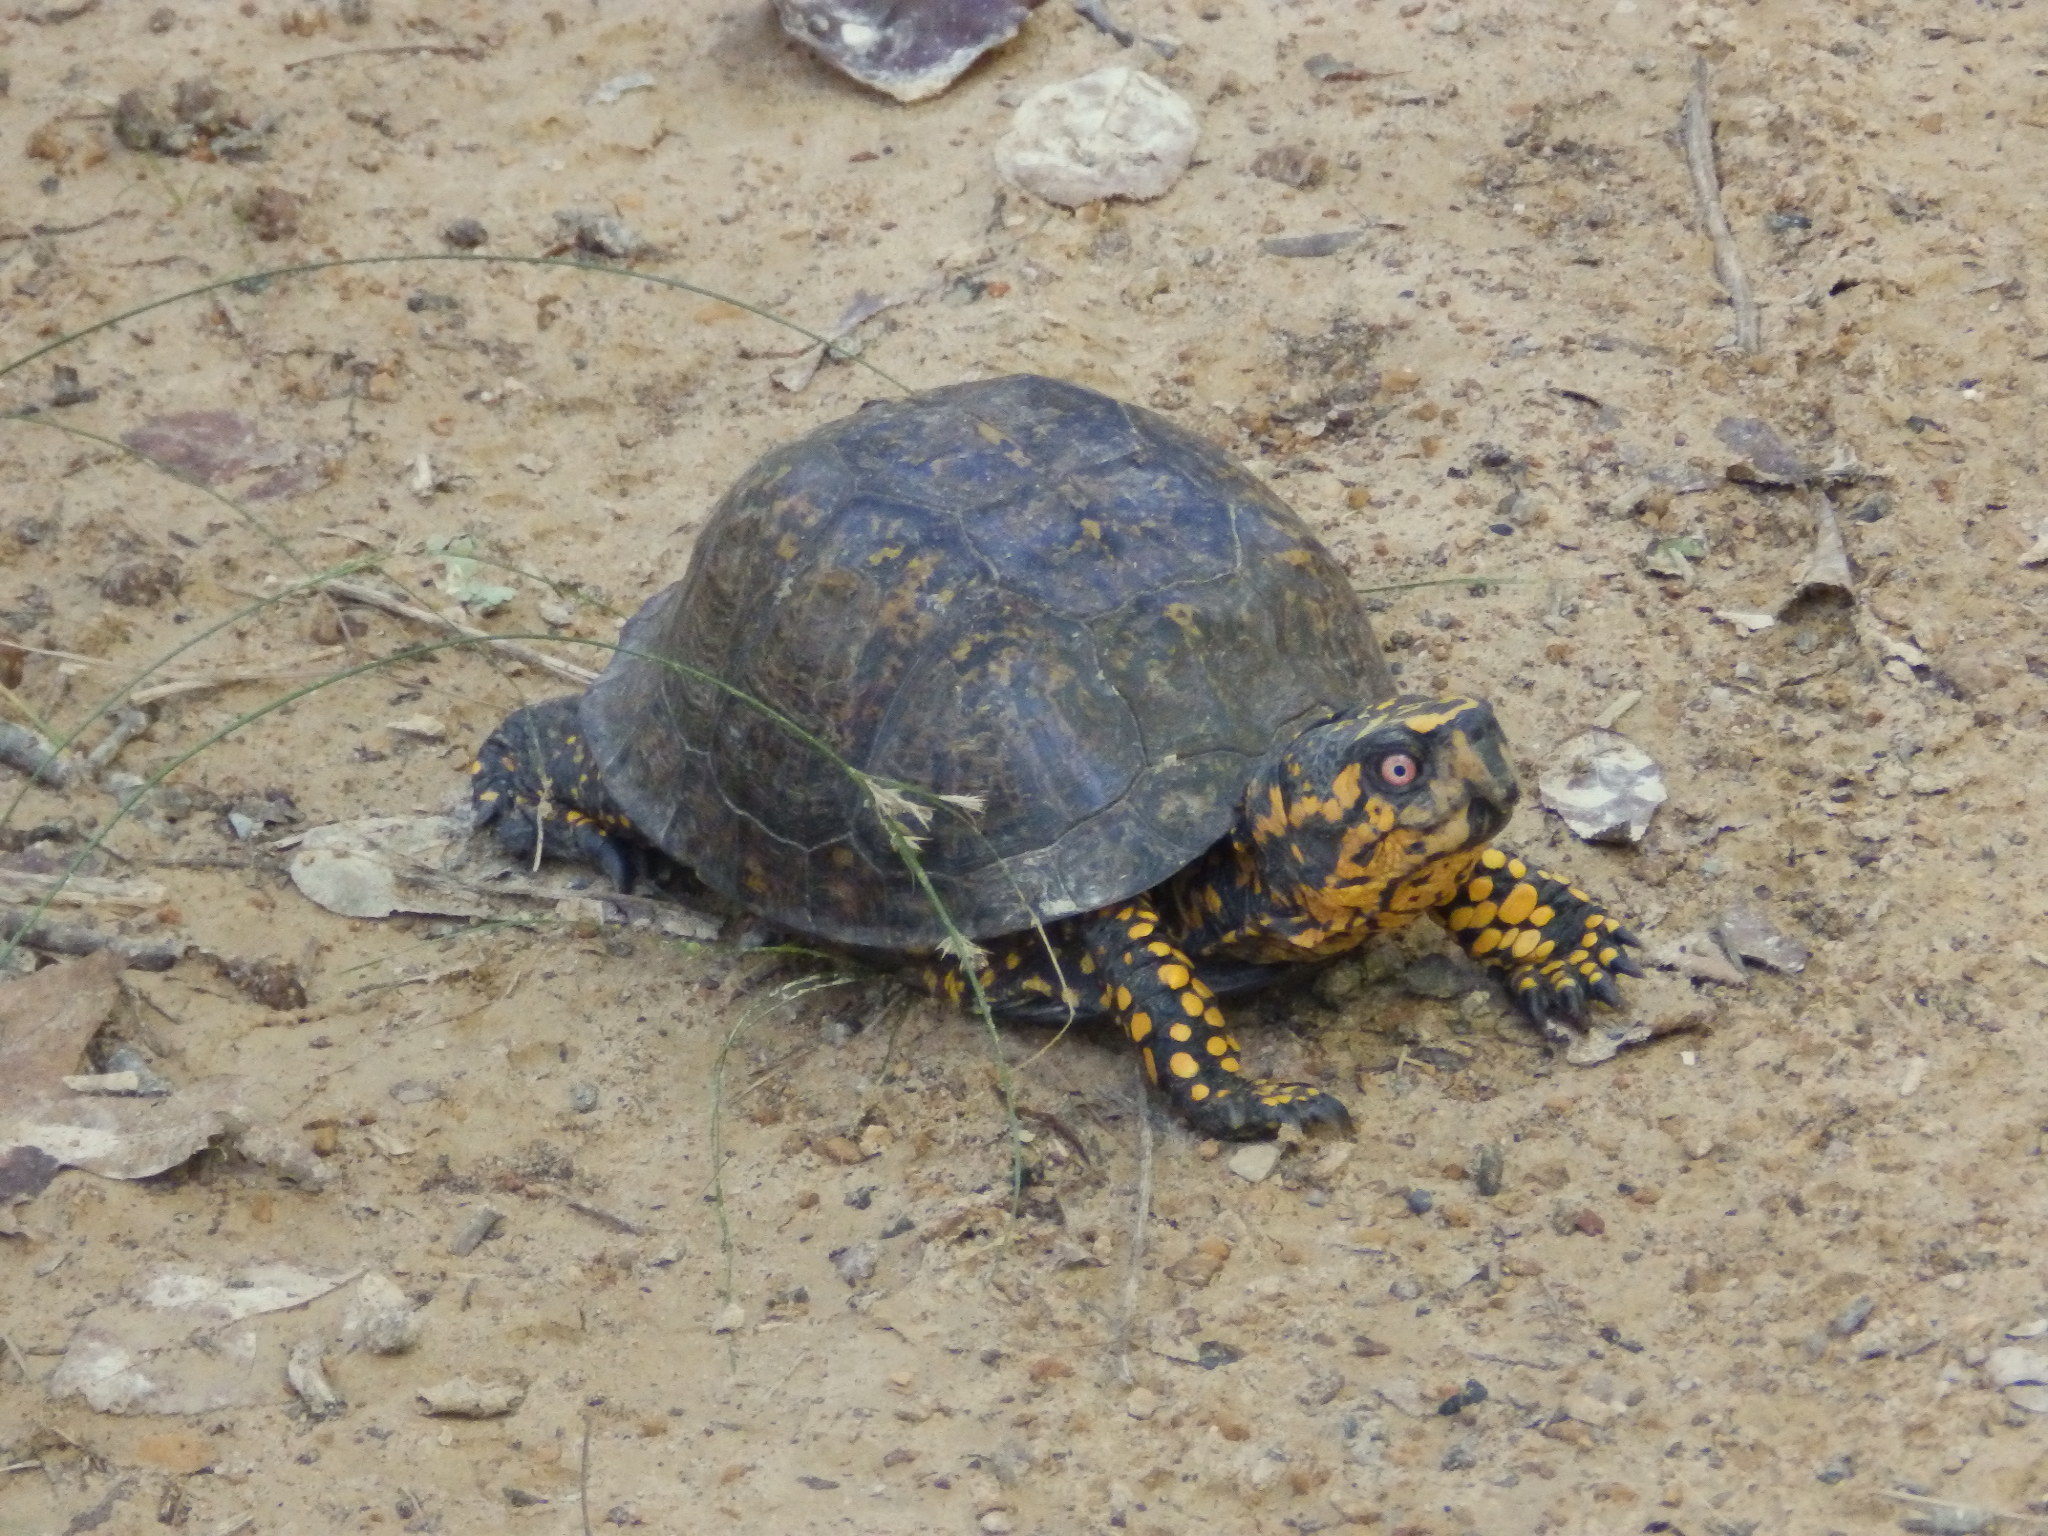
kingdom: Animalia
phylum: Chordata
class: Testudines
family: Emydidae
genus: Terrapene
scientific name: Terrapene carolina
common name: Common box turtle
